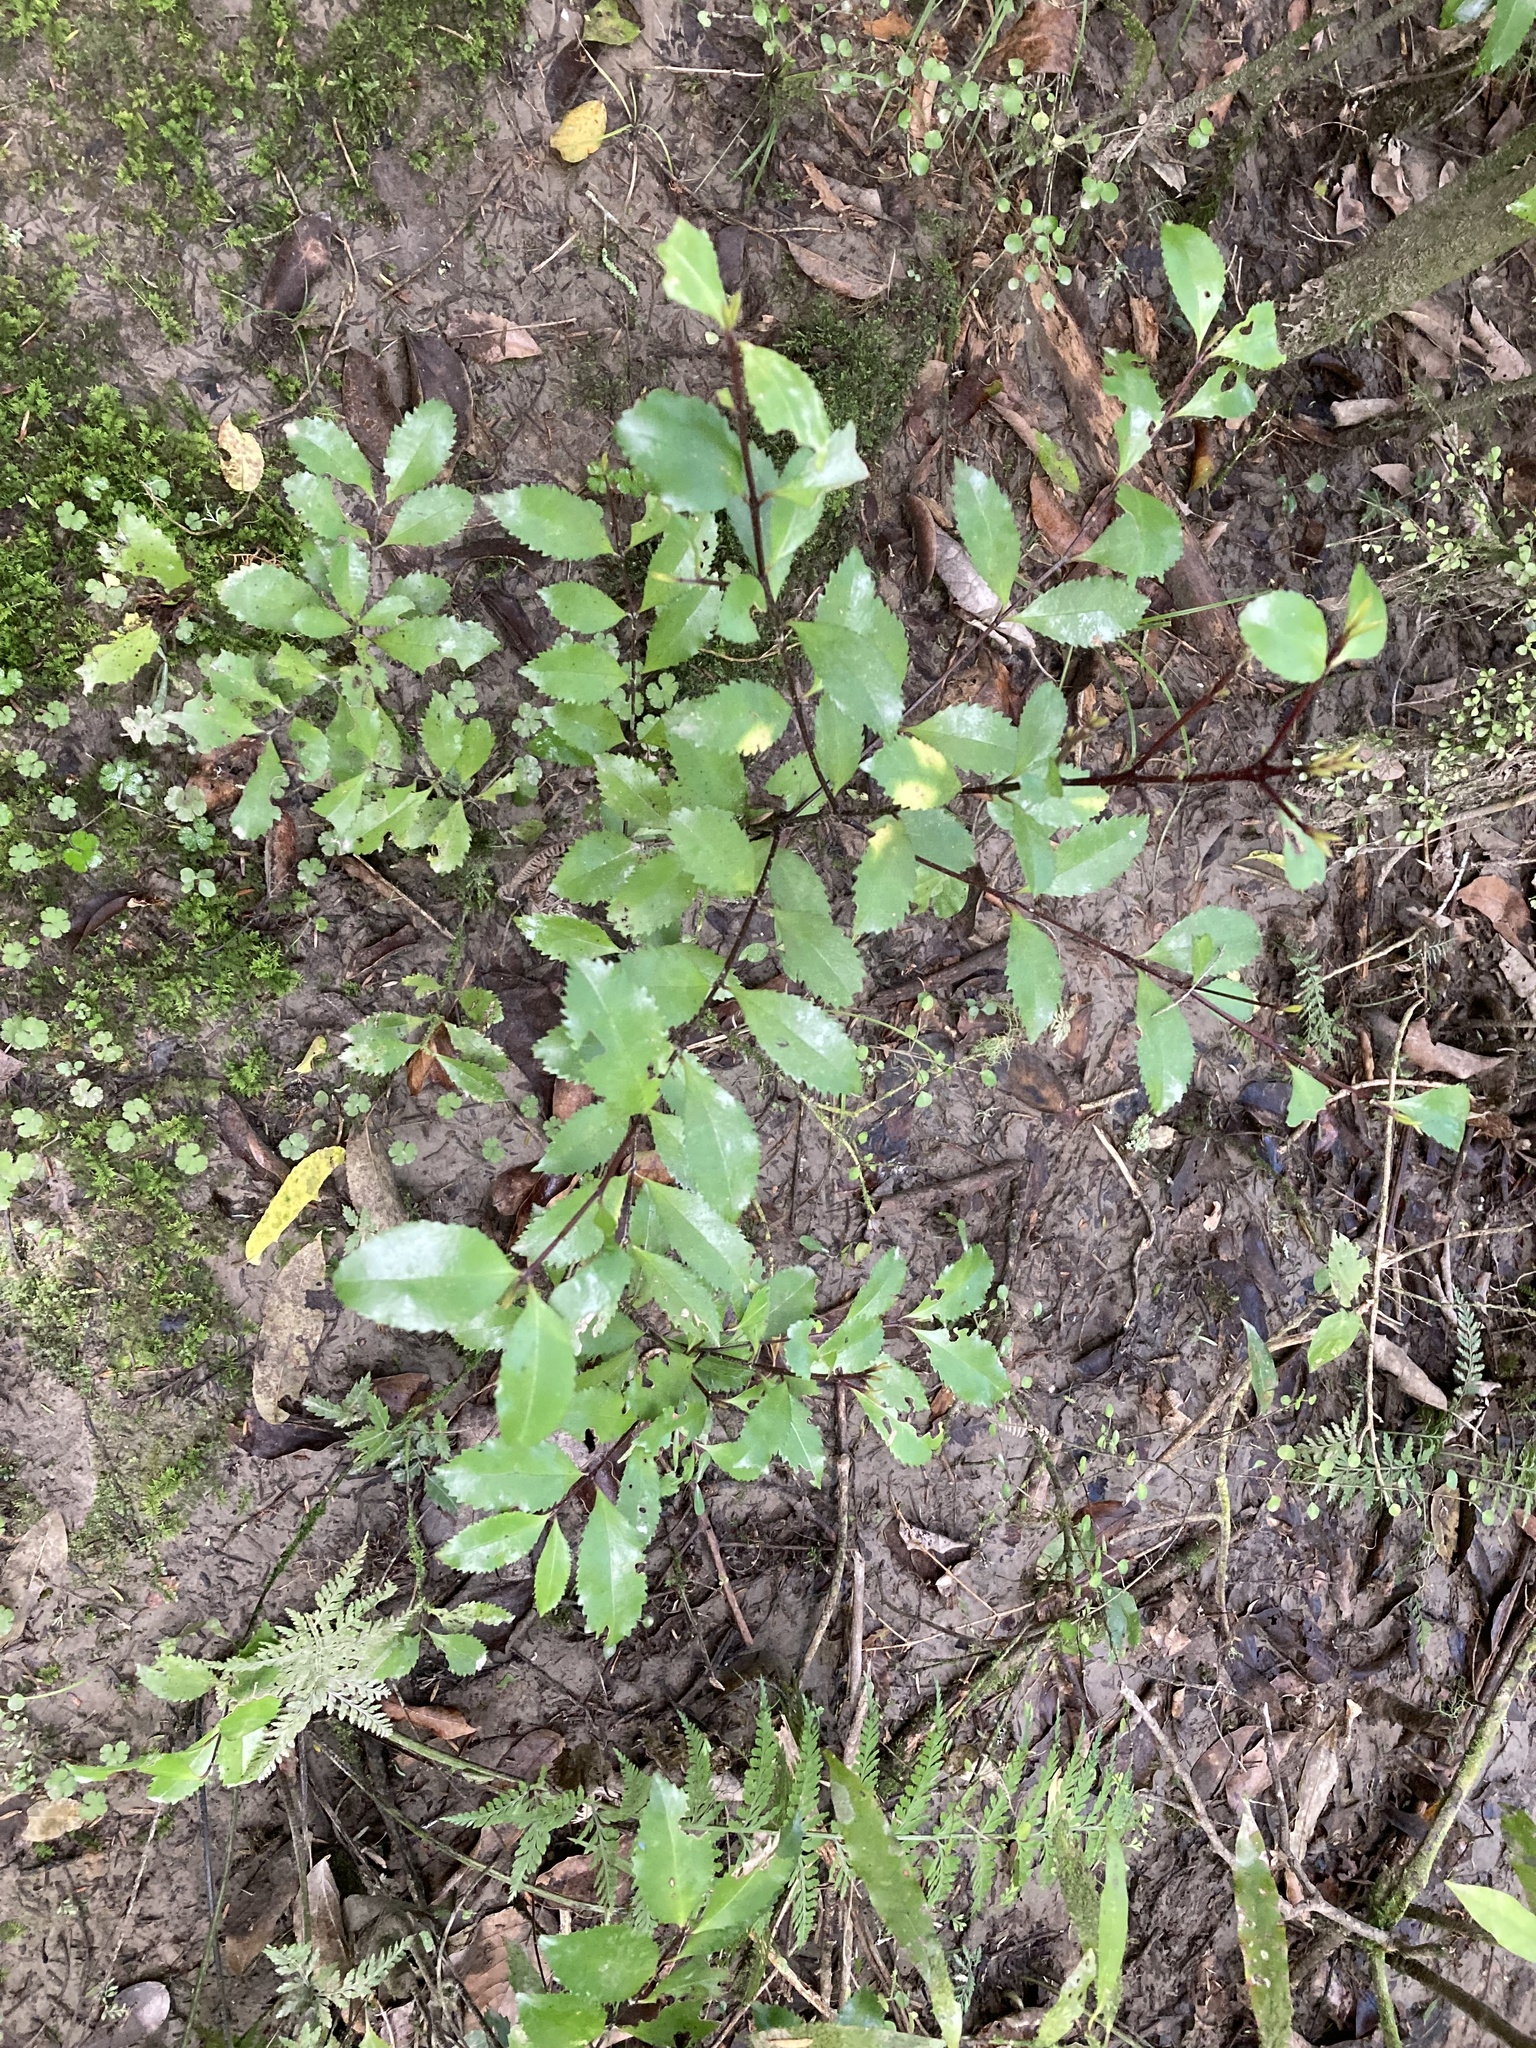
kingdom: Plantae
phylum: Tracheophyta
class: Magnoliopsida
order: Laurales
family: Atherospermataceae
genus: Laurelia
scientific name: Laurelia novae-zelandiae
